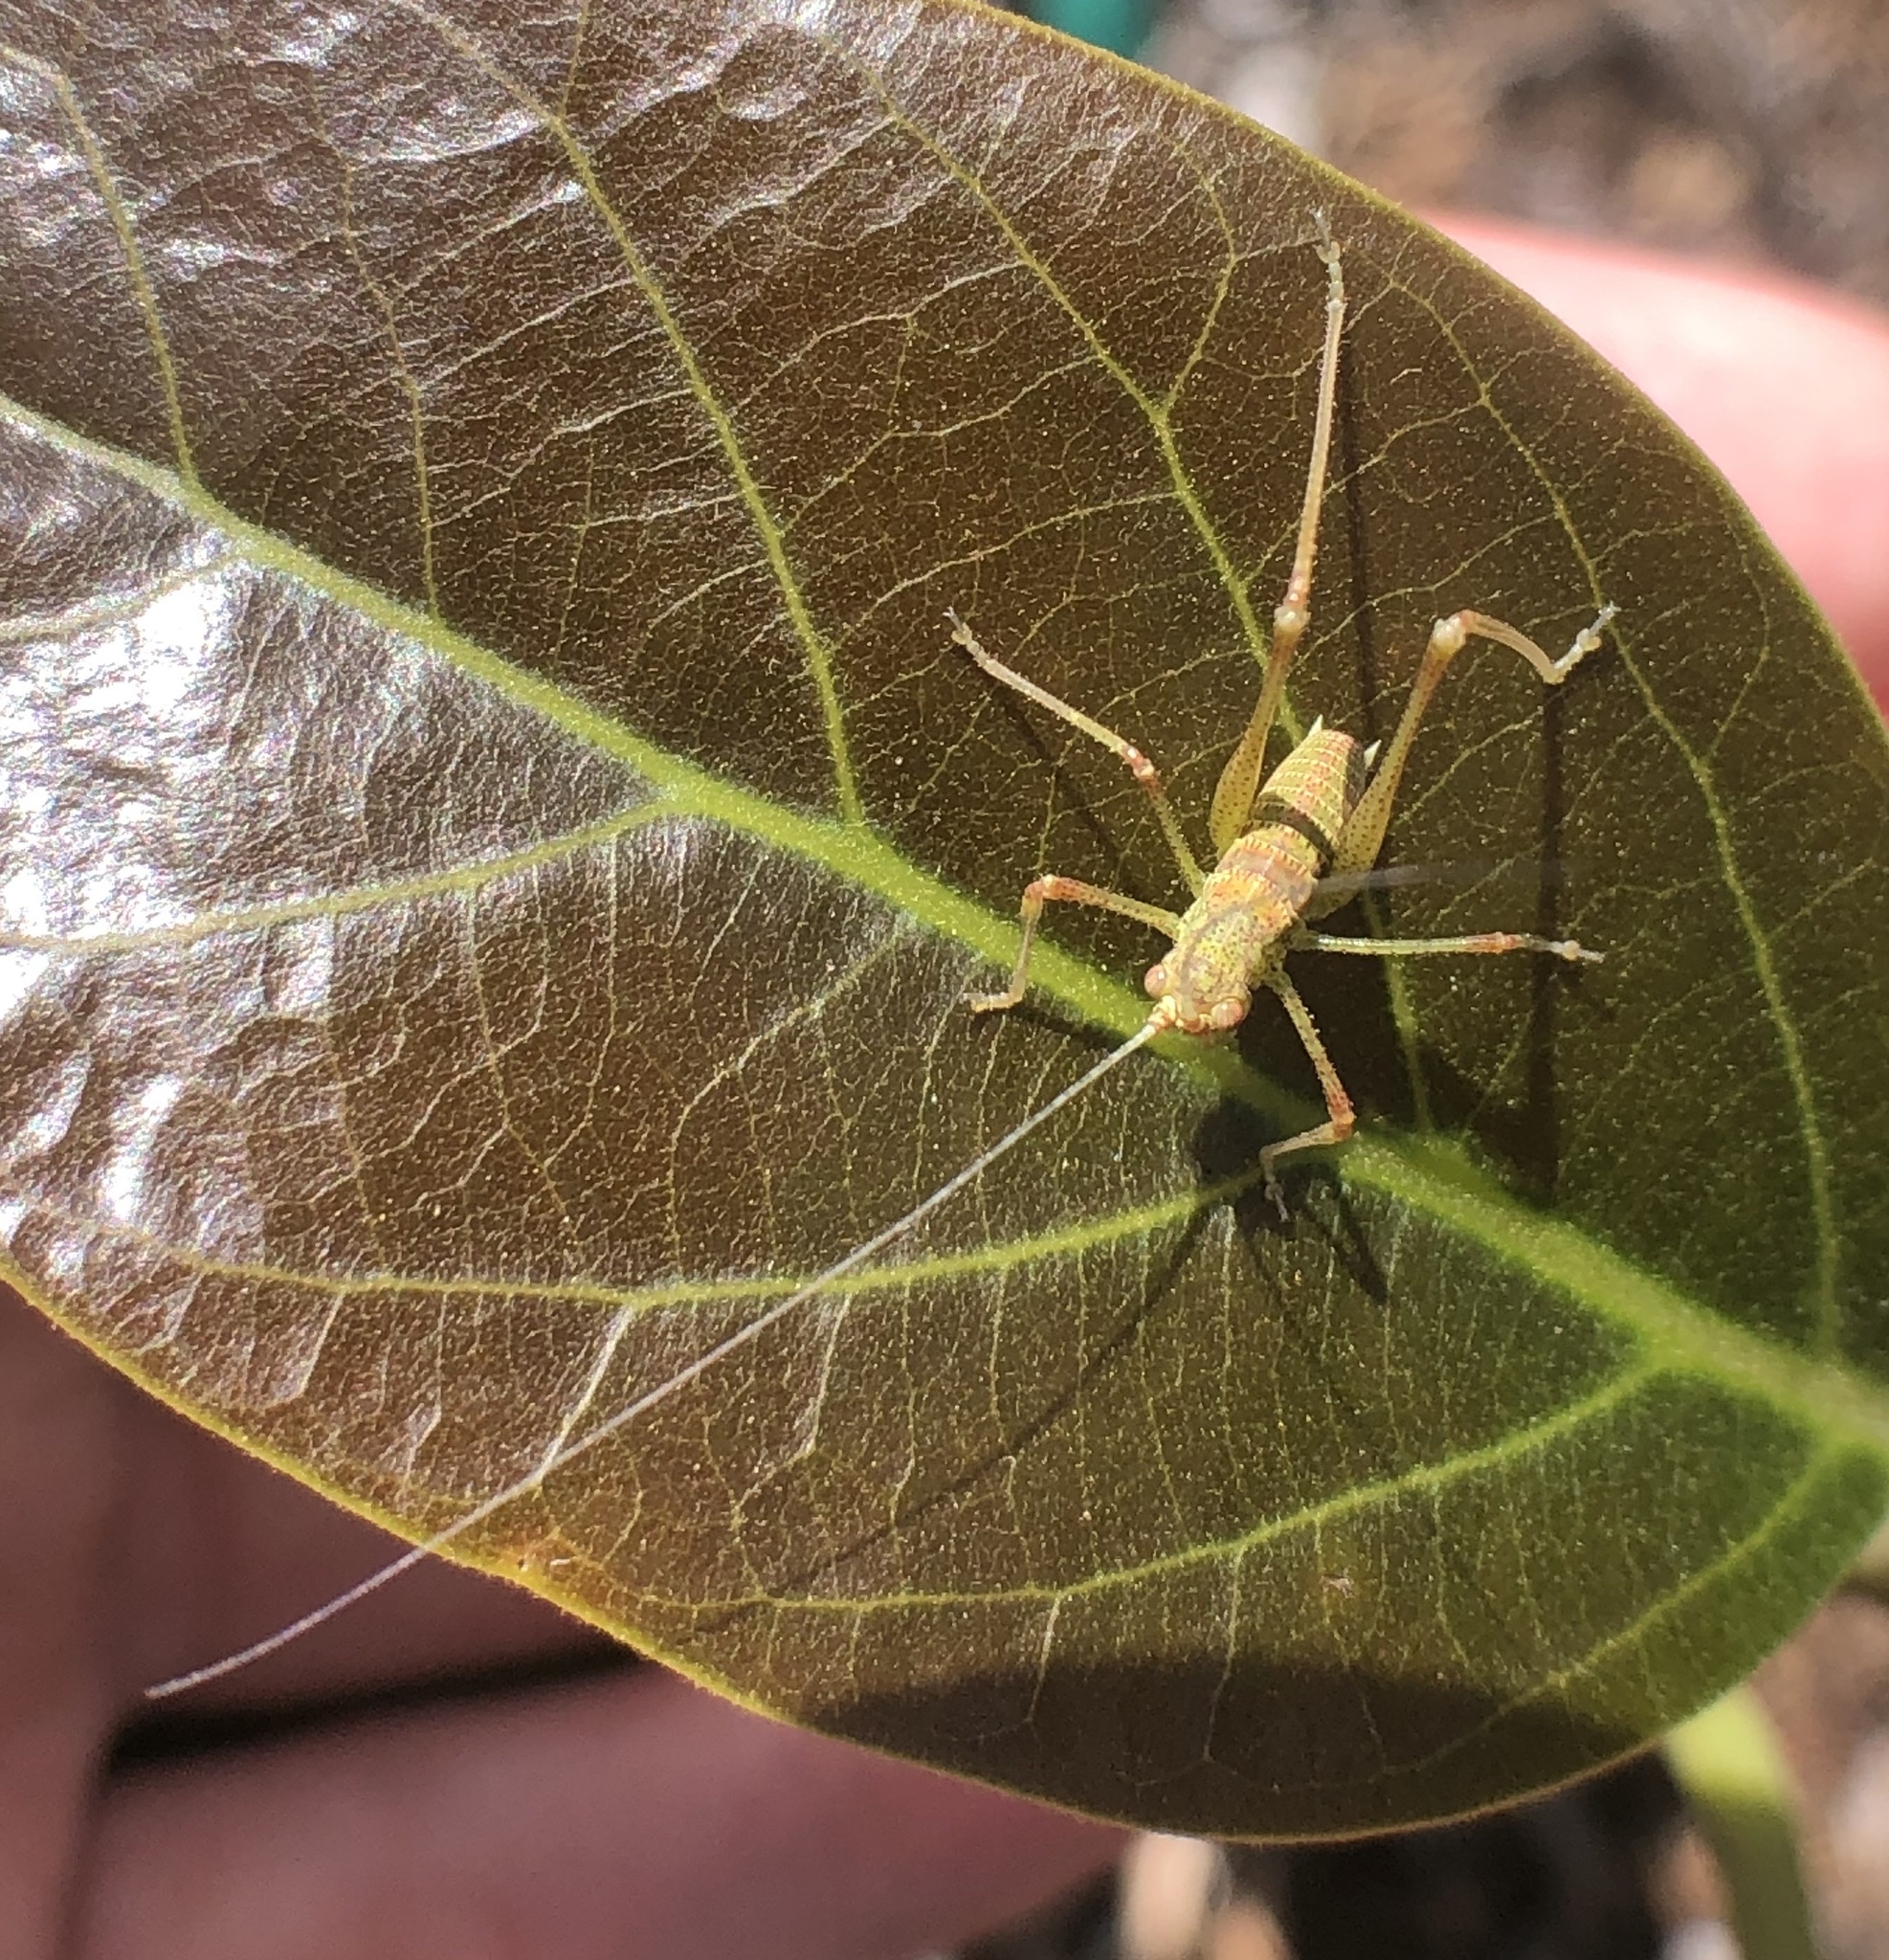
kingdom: Animalia
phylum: Arthropoda
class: Insecta
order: Orthoptera
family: Tettigoniidae
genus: Phaneroptera
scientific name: Phaneroptera nana
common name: Southern sickle bush-cricket
